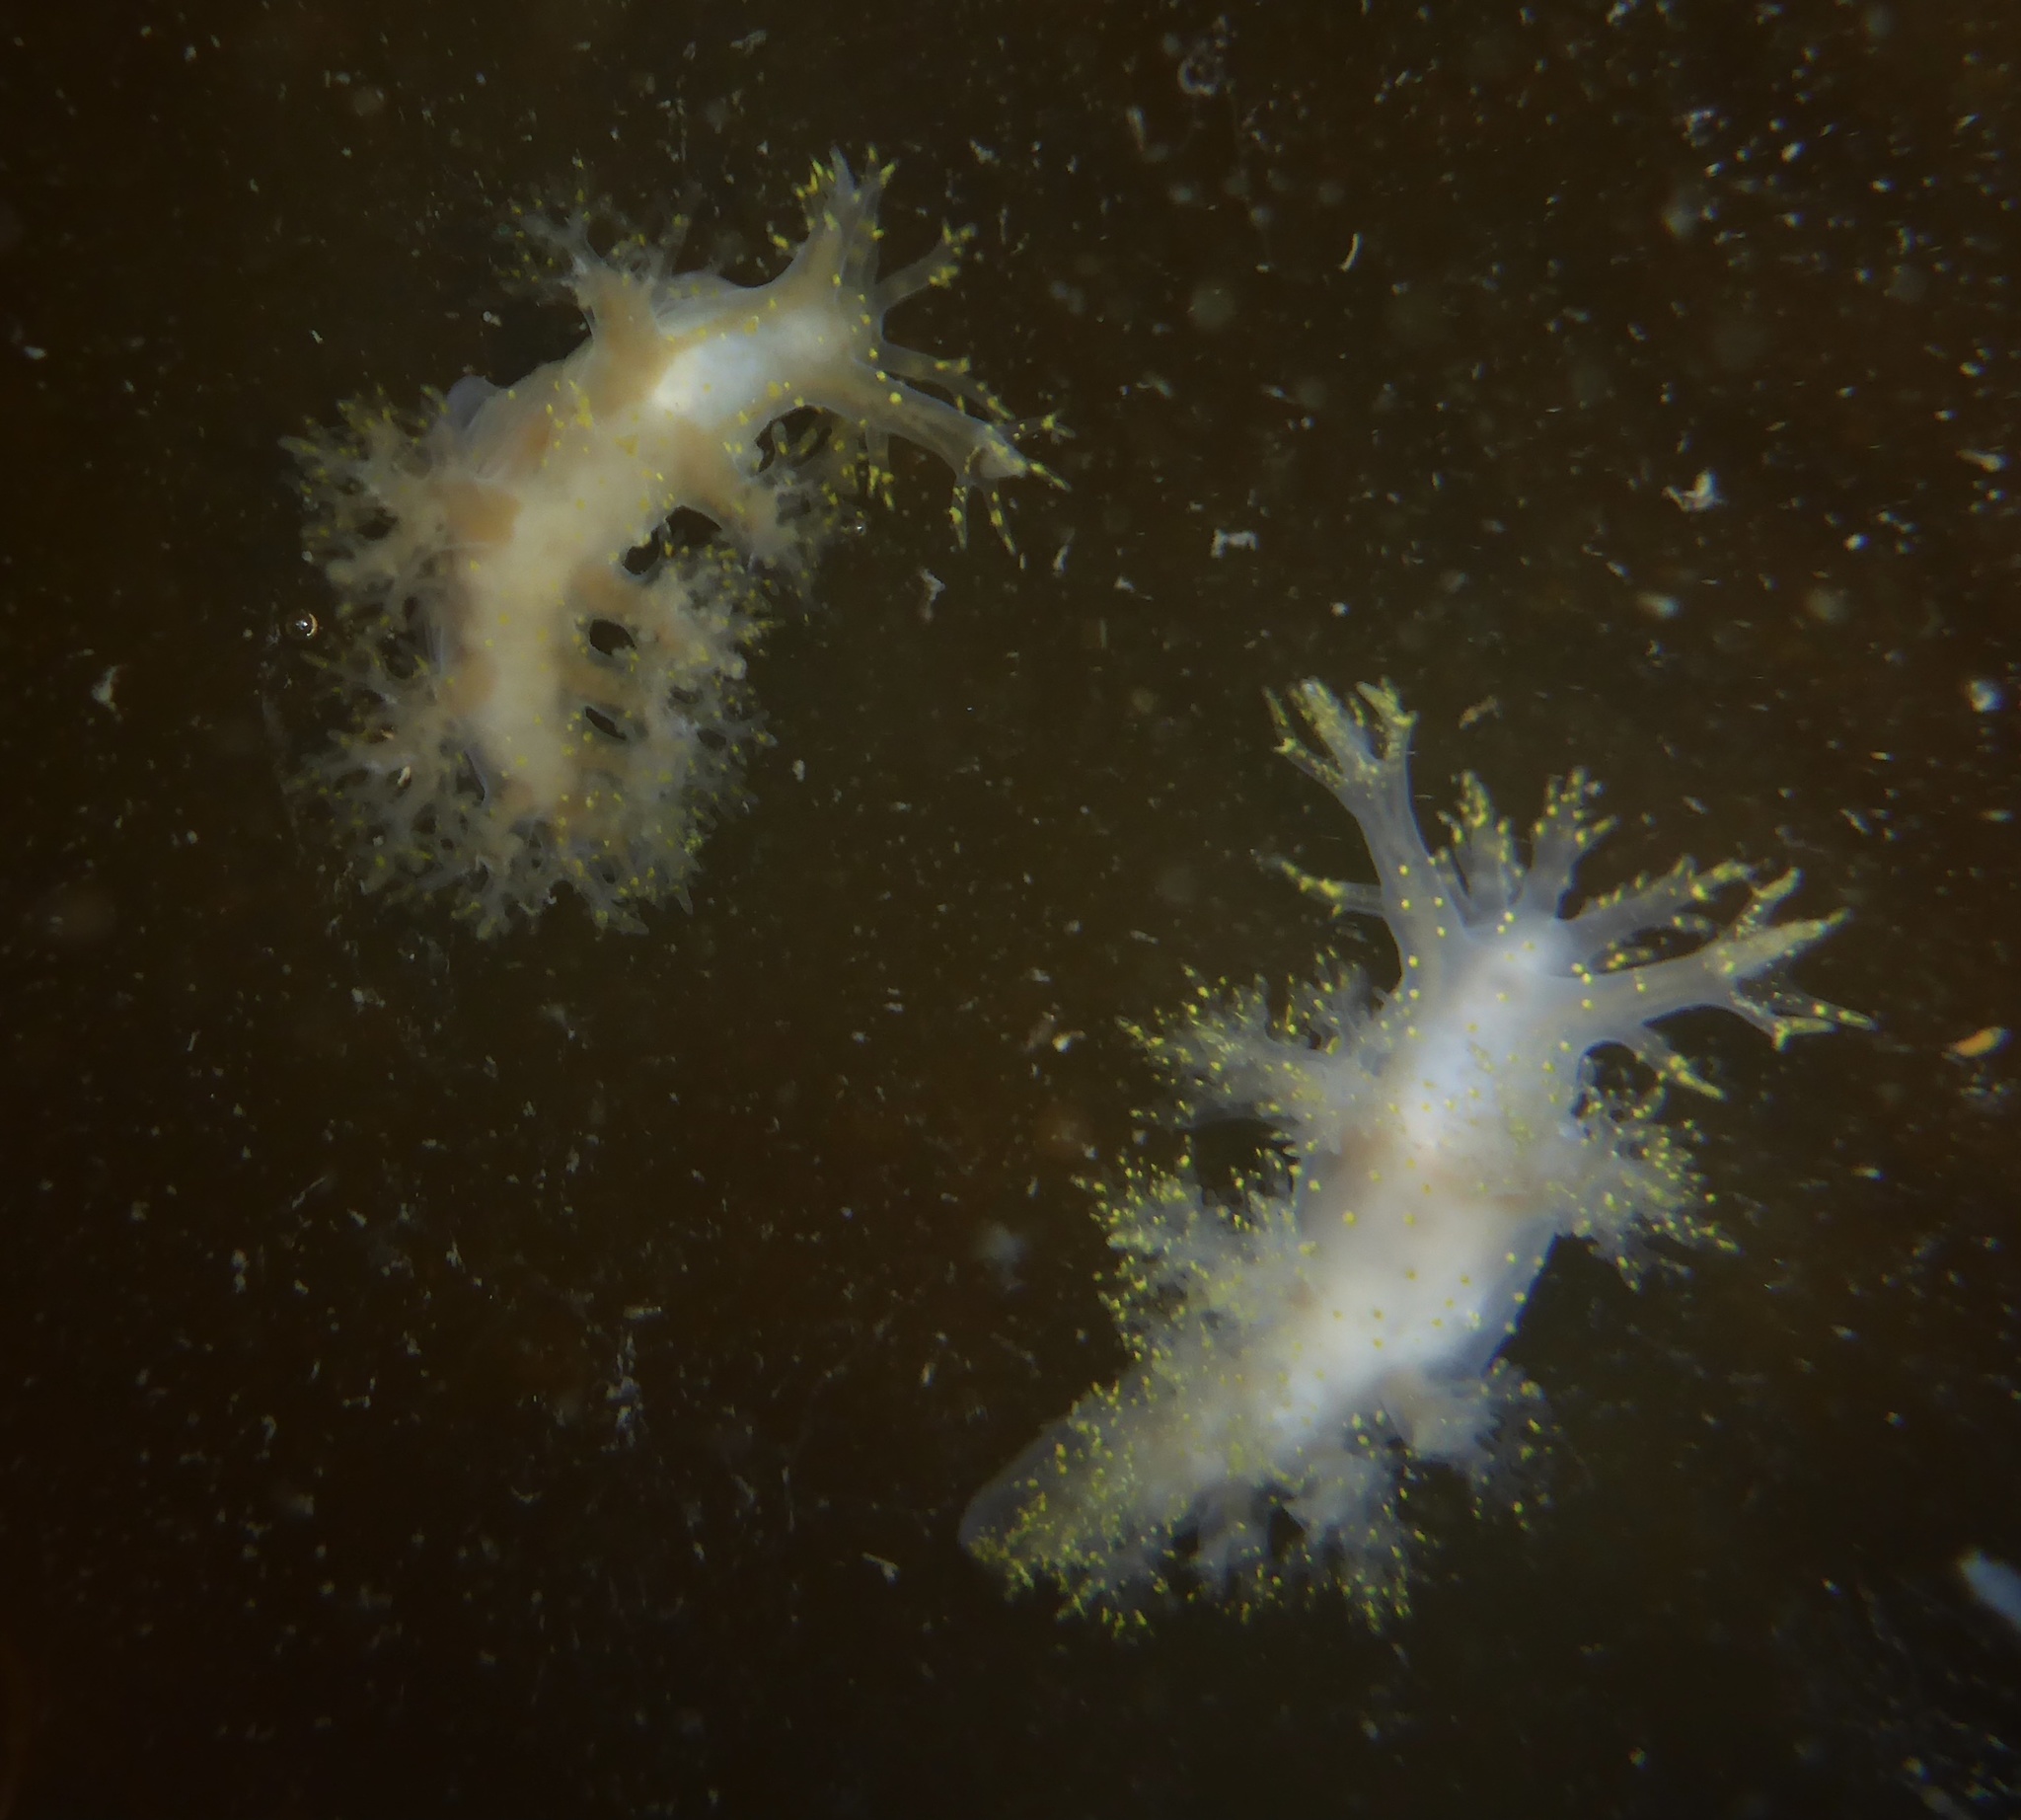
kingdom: Animalia
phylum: Mollusca
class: Gastropoda
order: Nudibranchia
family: Dendronotidae
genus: Dendronotus
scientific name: Dendronotus venustus
